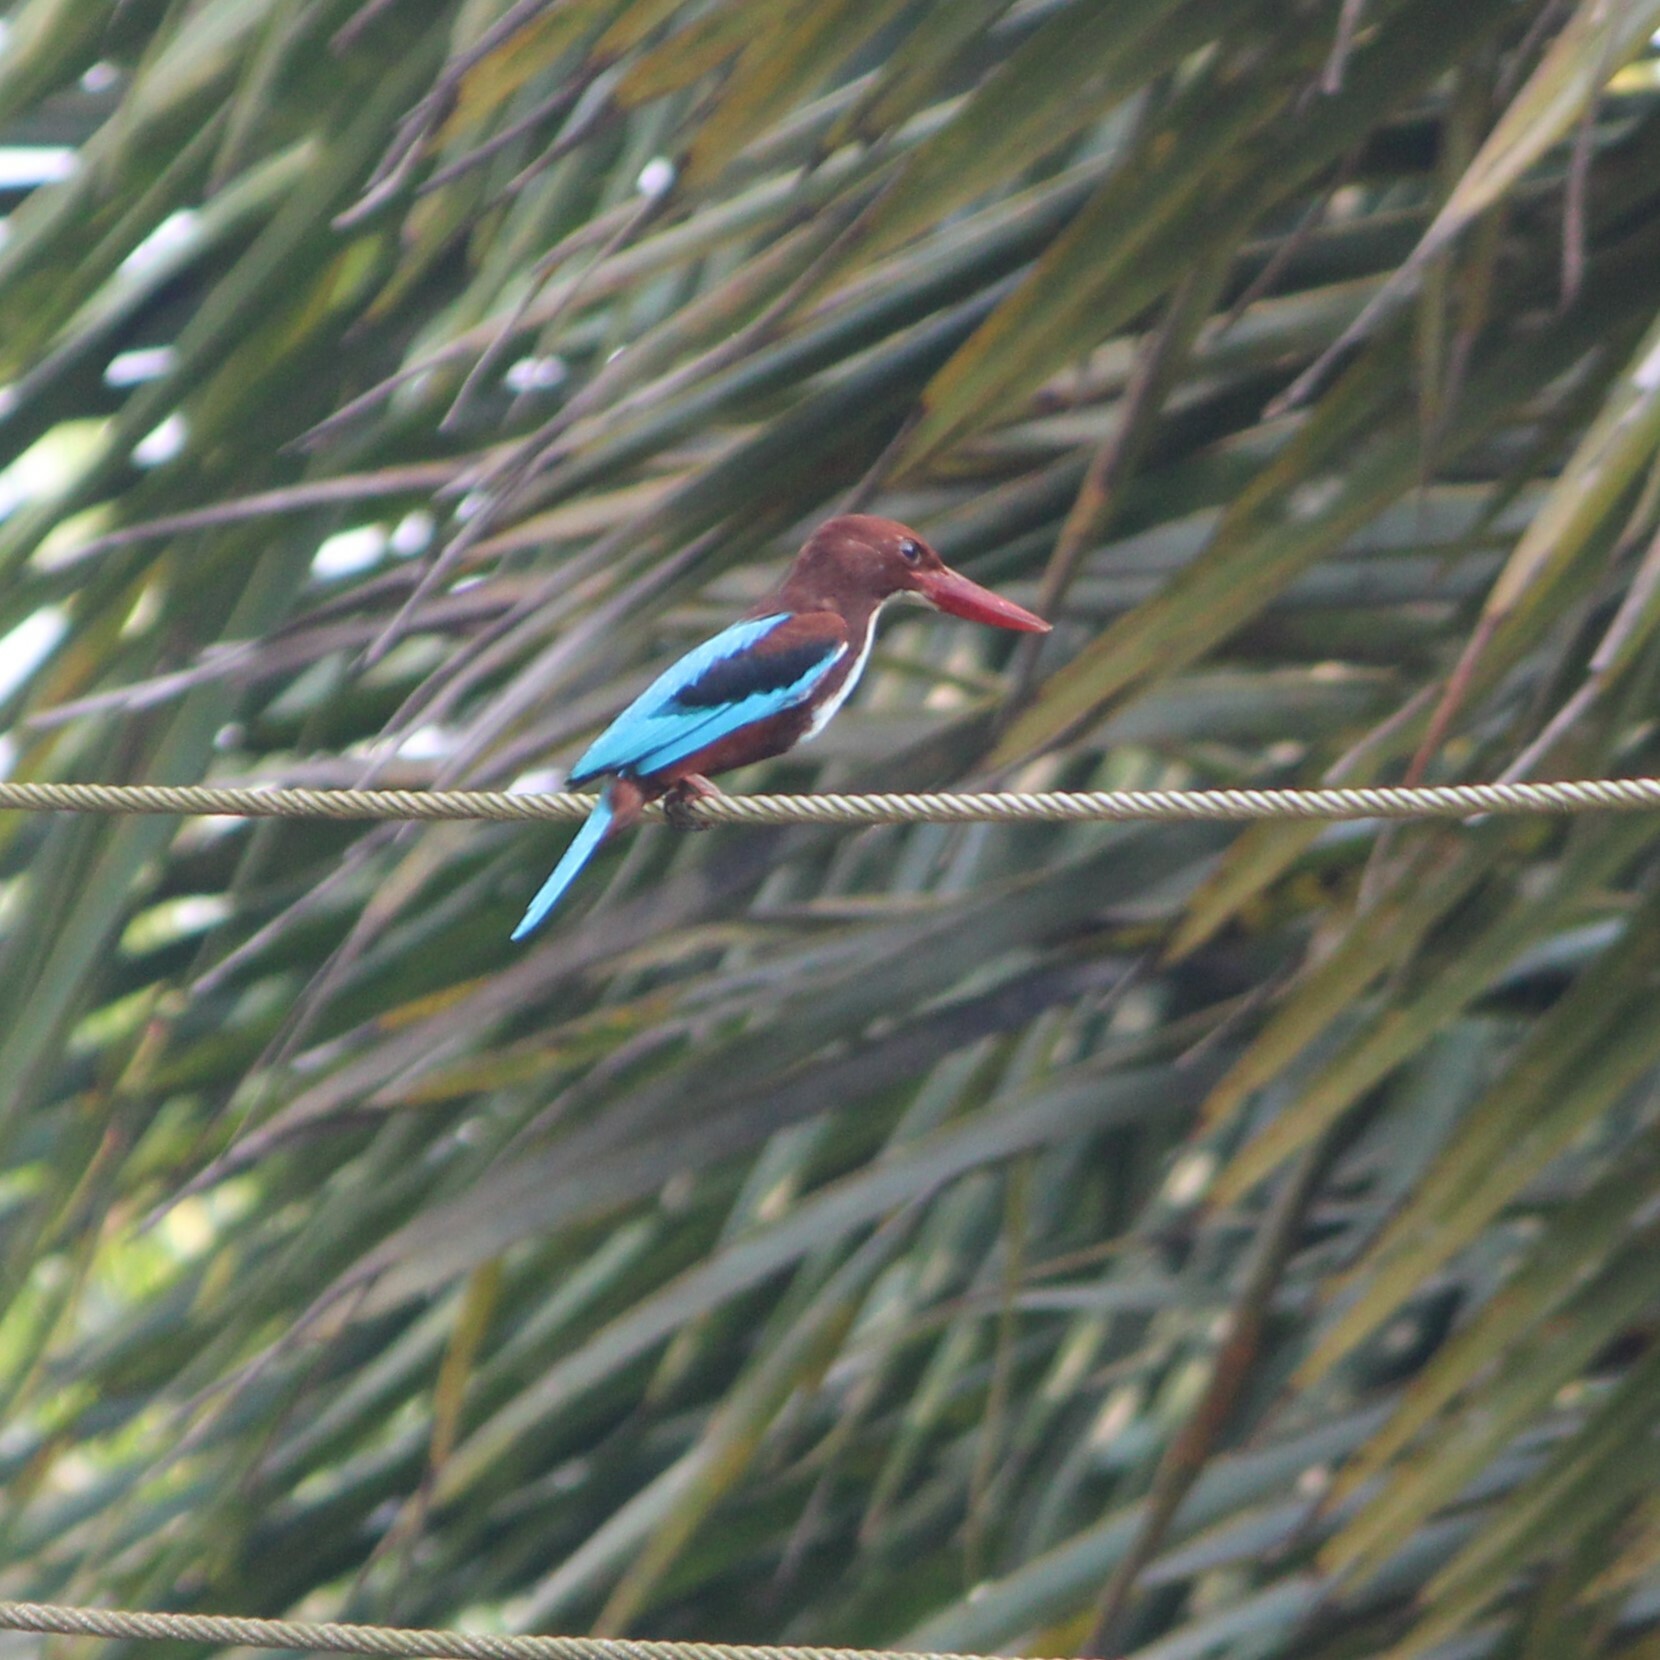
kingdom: Animalia
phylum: Chordata
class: Aves
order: Coraciiformes
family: Alcedinidae
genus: Halcyon
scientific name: Halcyon smyrnensis
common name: White-throated kingfisher
